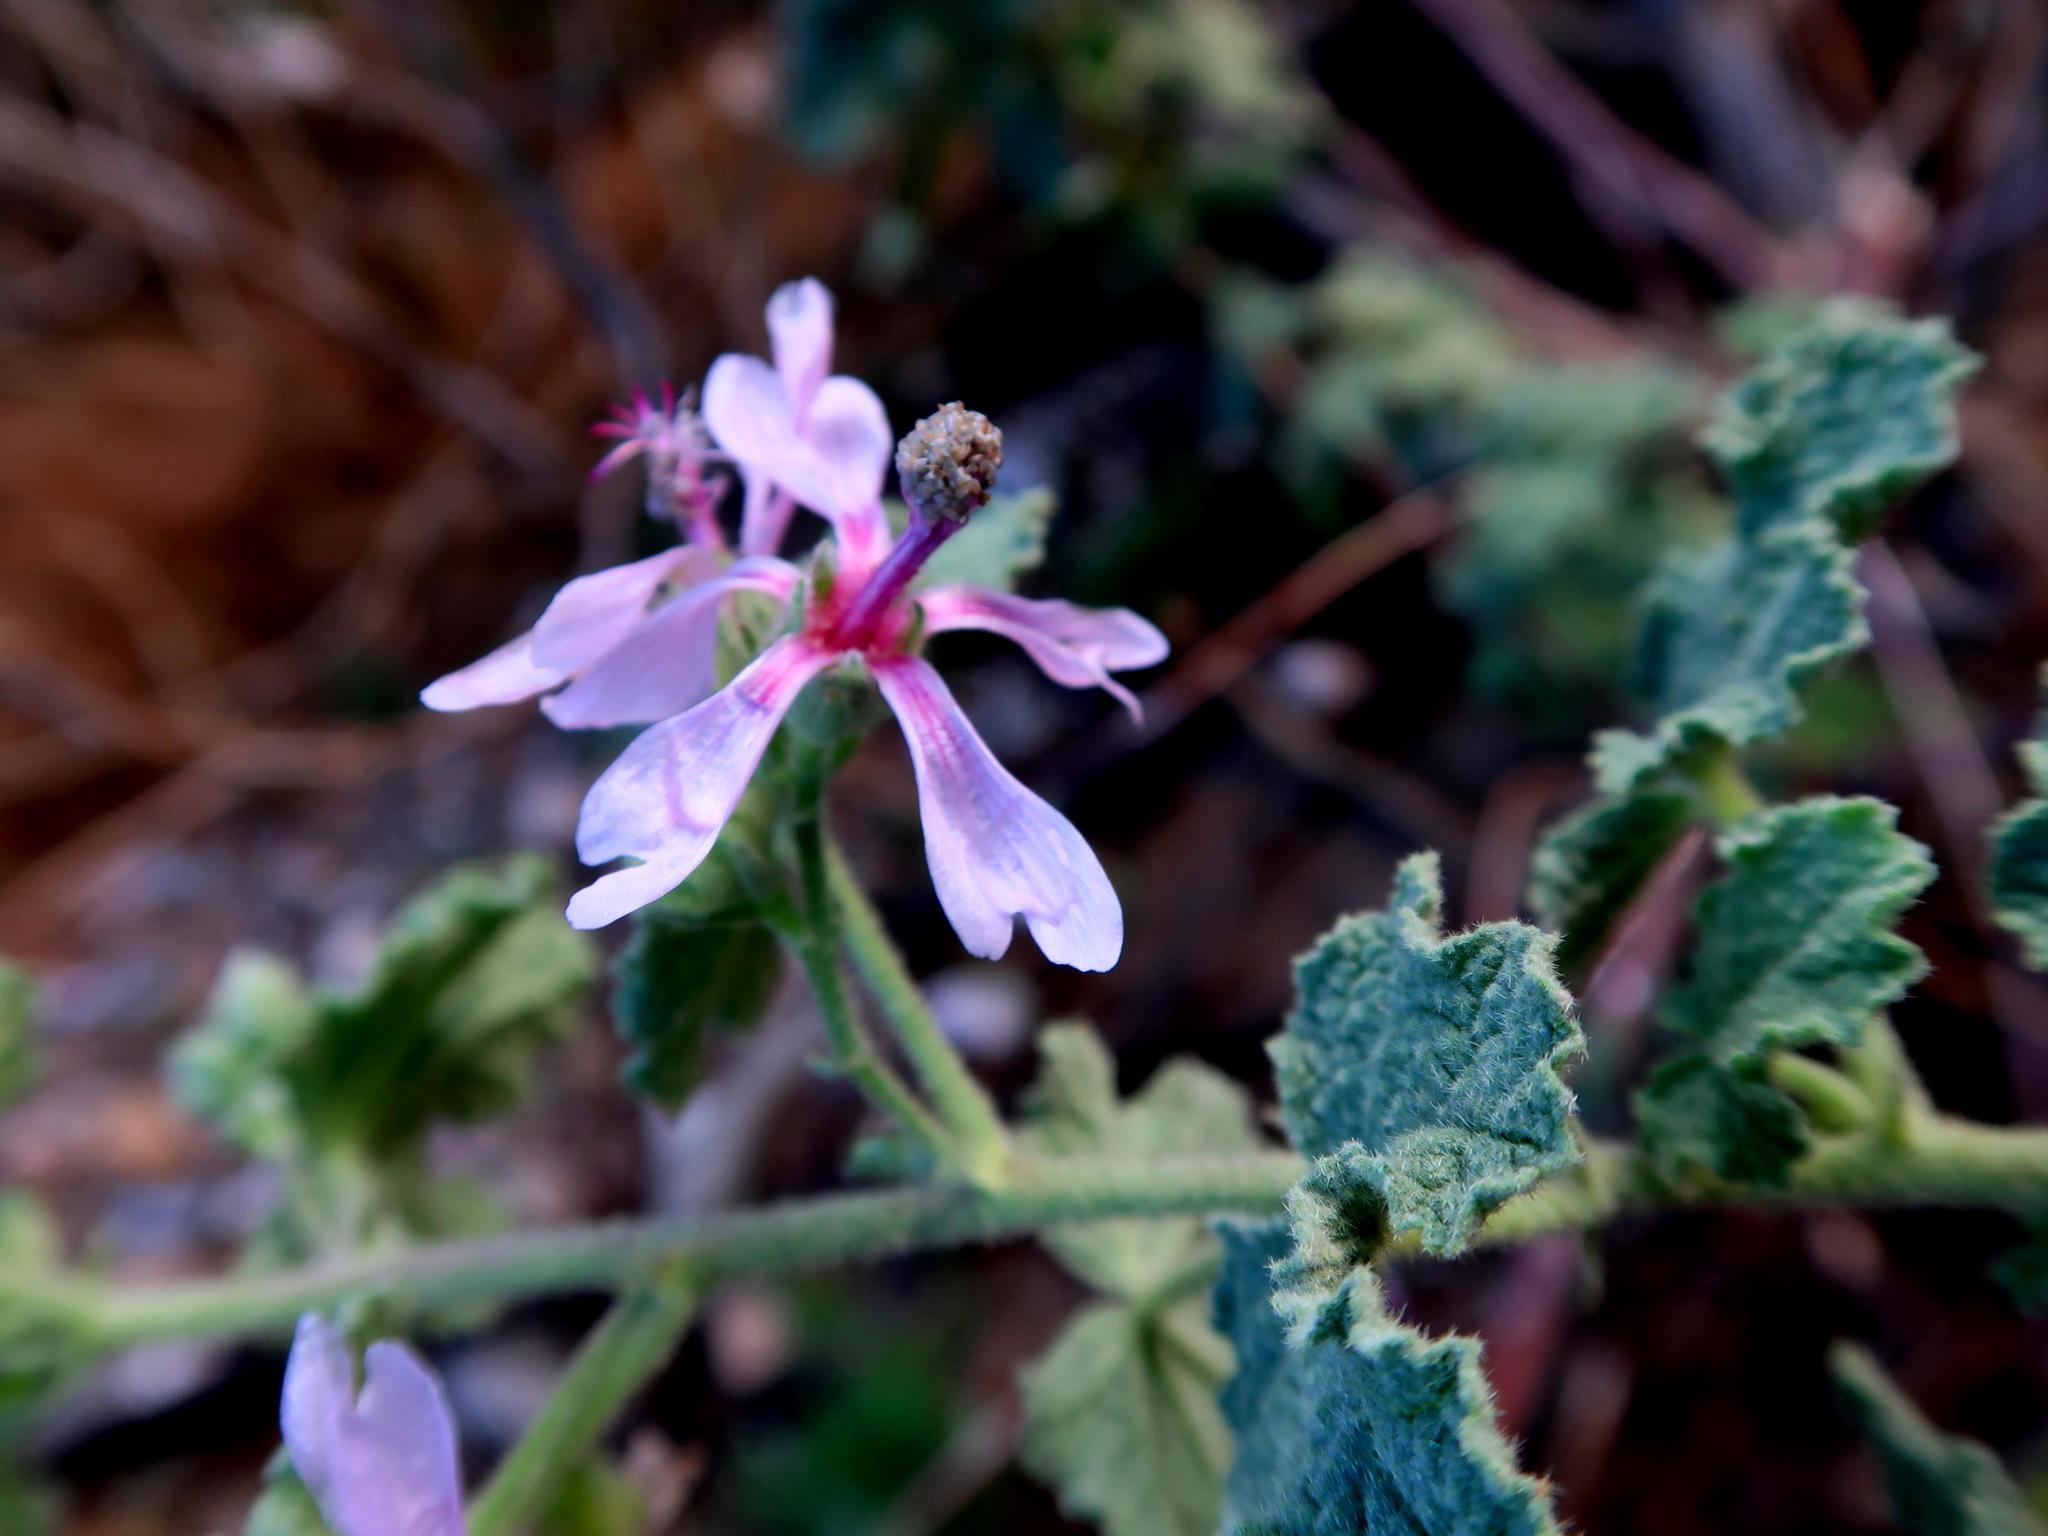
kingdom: Plantae
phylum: Tracheophyta
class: Magnoliopsida
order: Malvales
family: Malvaceae
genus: Anisodontea
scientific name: Anisodontea reflexa
